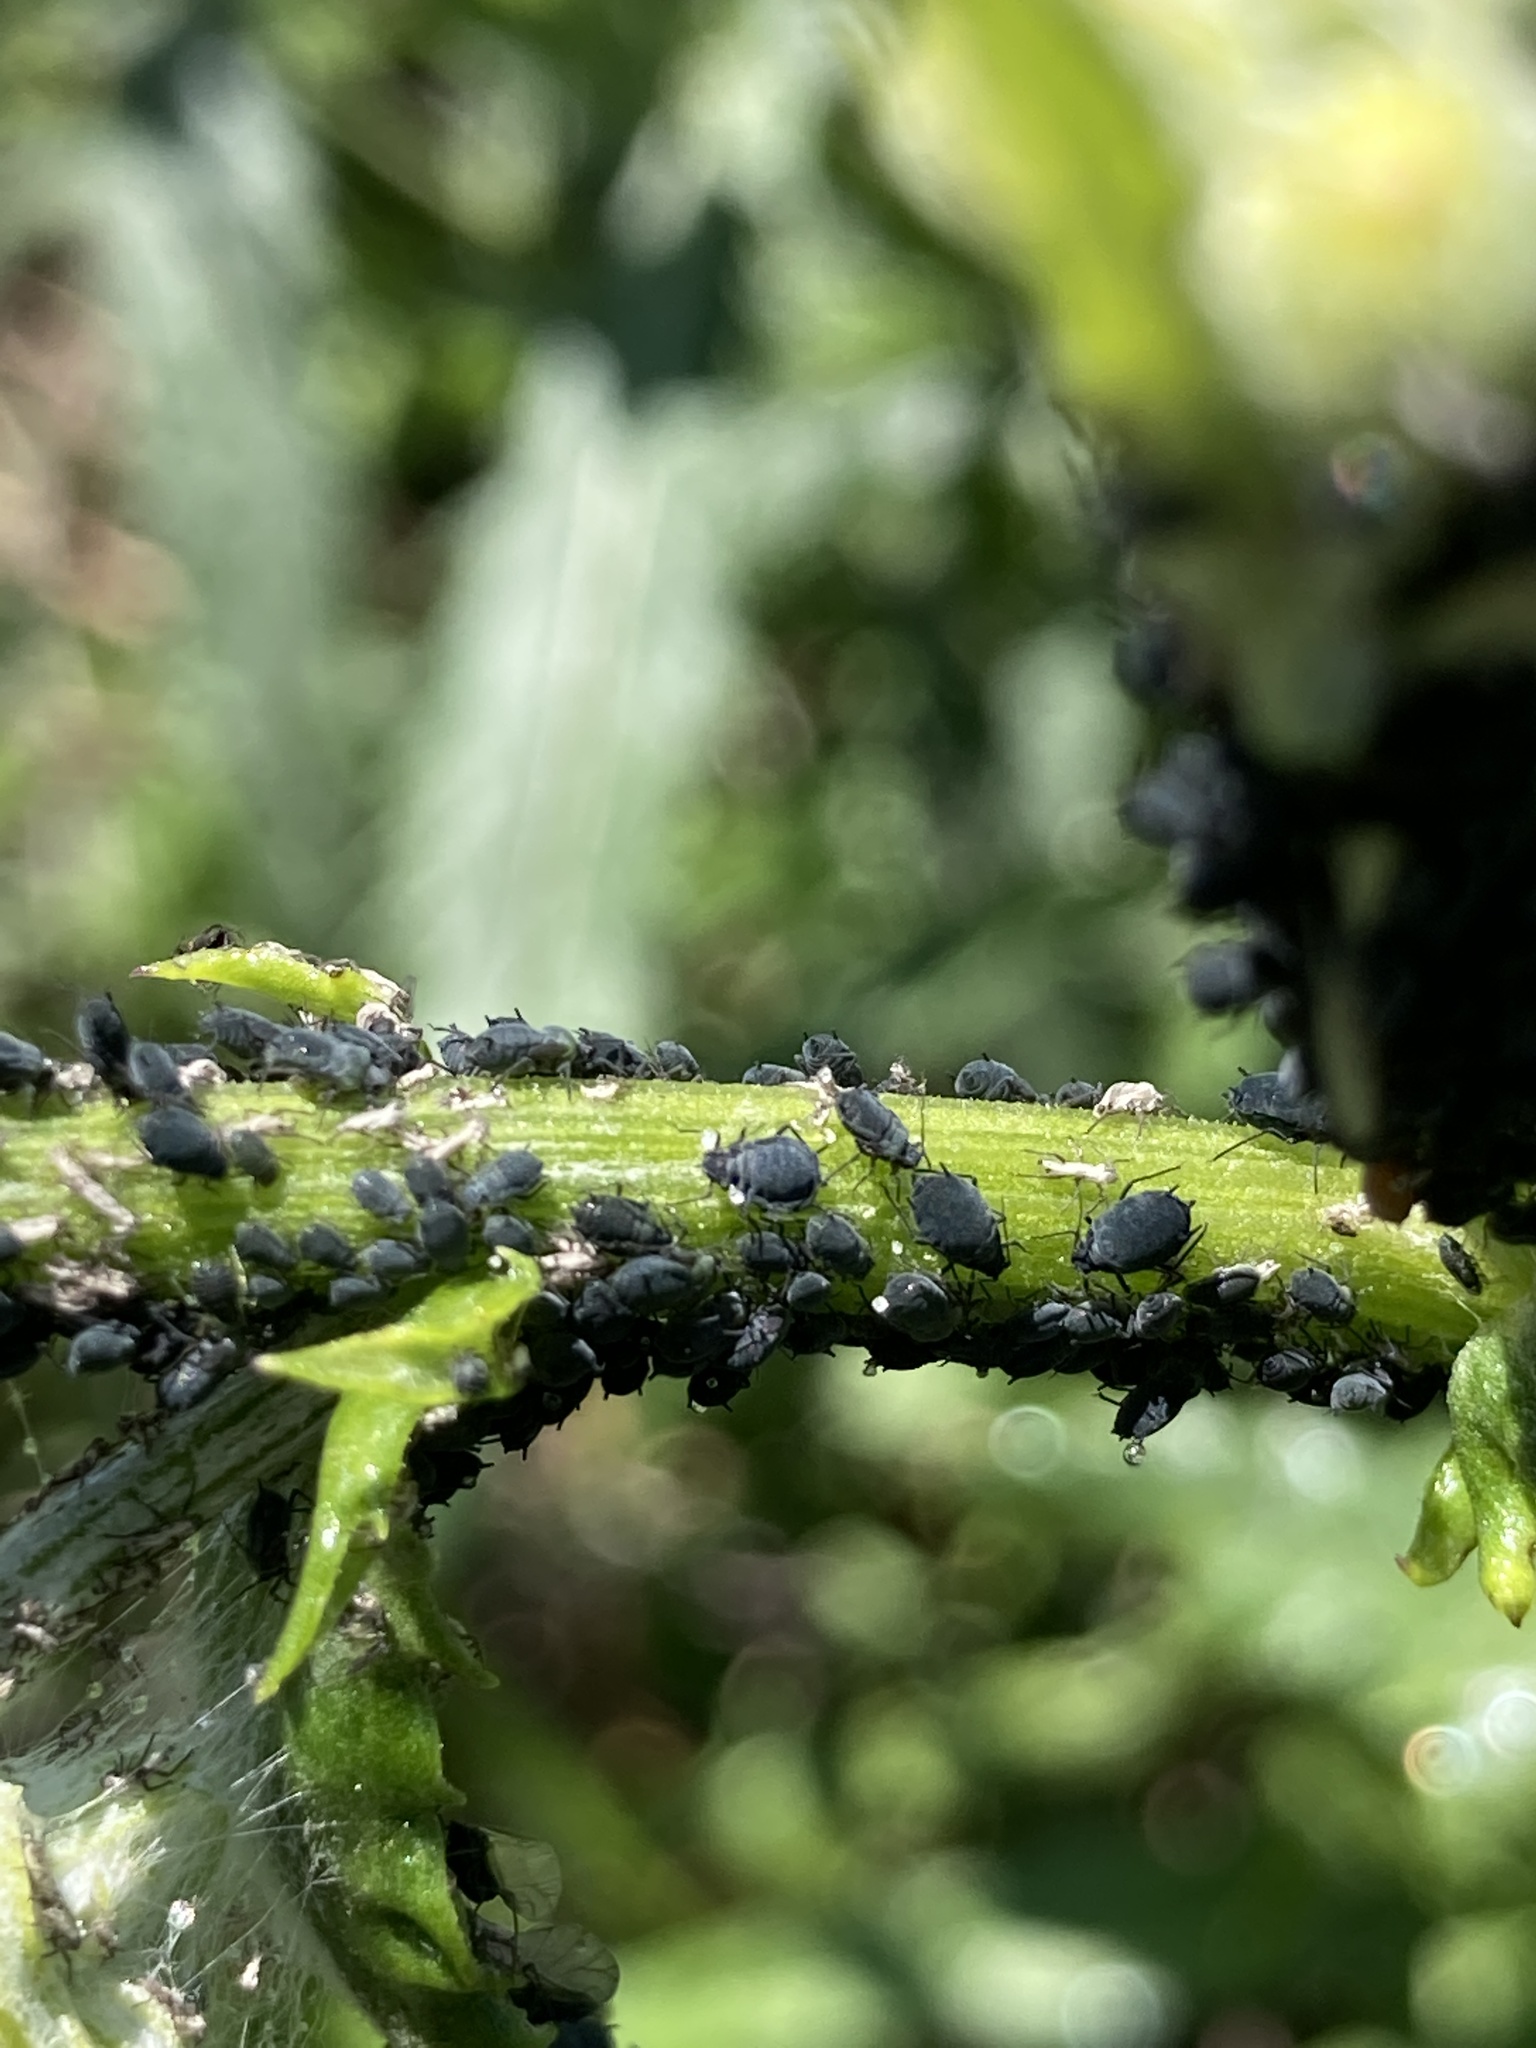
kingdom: Animalia
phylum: Arthropoda
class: Insecta
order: Hemiptera
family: Aphididae
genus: Aphis
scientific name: Aphis lugentis
